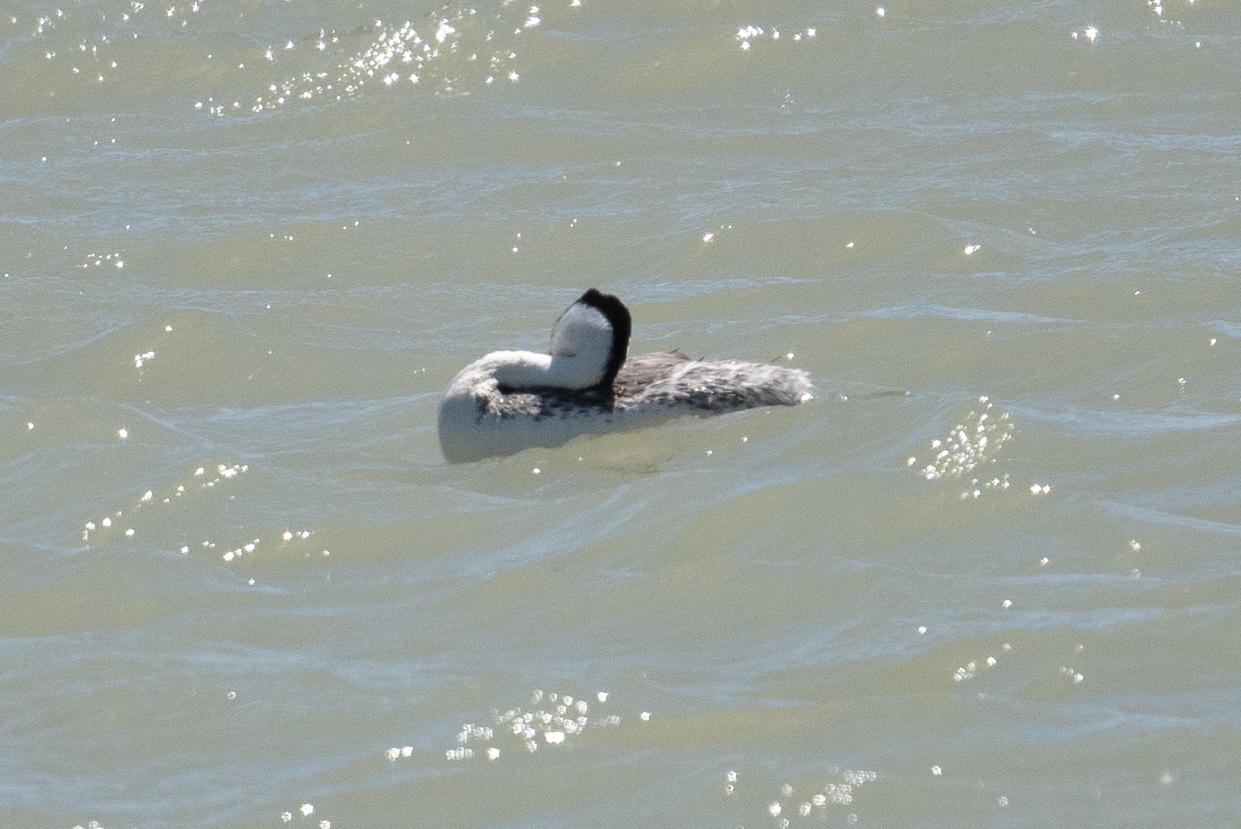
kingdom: Animalia
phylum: Chordata
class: Aves
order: Podicipediformes
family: Podicipedidae
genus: Aechmophorus
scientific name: Aechmophorus clarkii
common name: Clark's grebe
